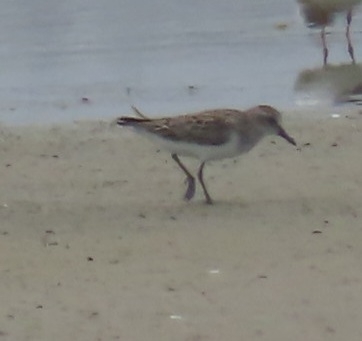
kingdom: Animalia
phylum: Chordata
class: Aves
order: Charadriiformes
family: Scolopacidae
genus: Calidris
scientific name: Calidris pusilla
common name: Semipalmated sandpiper
